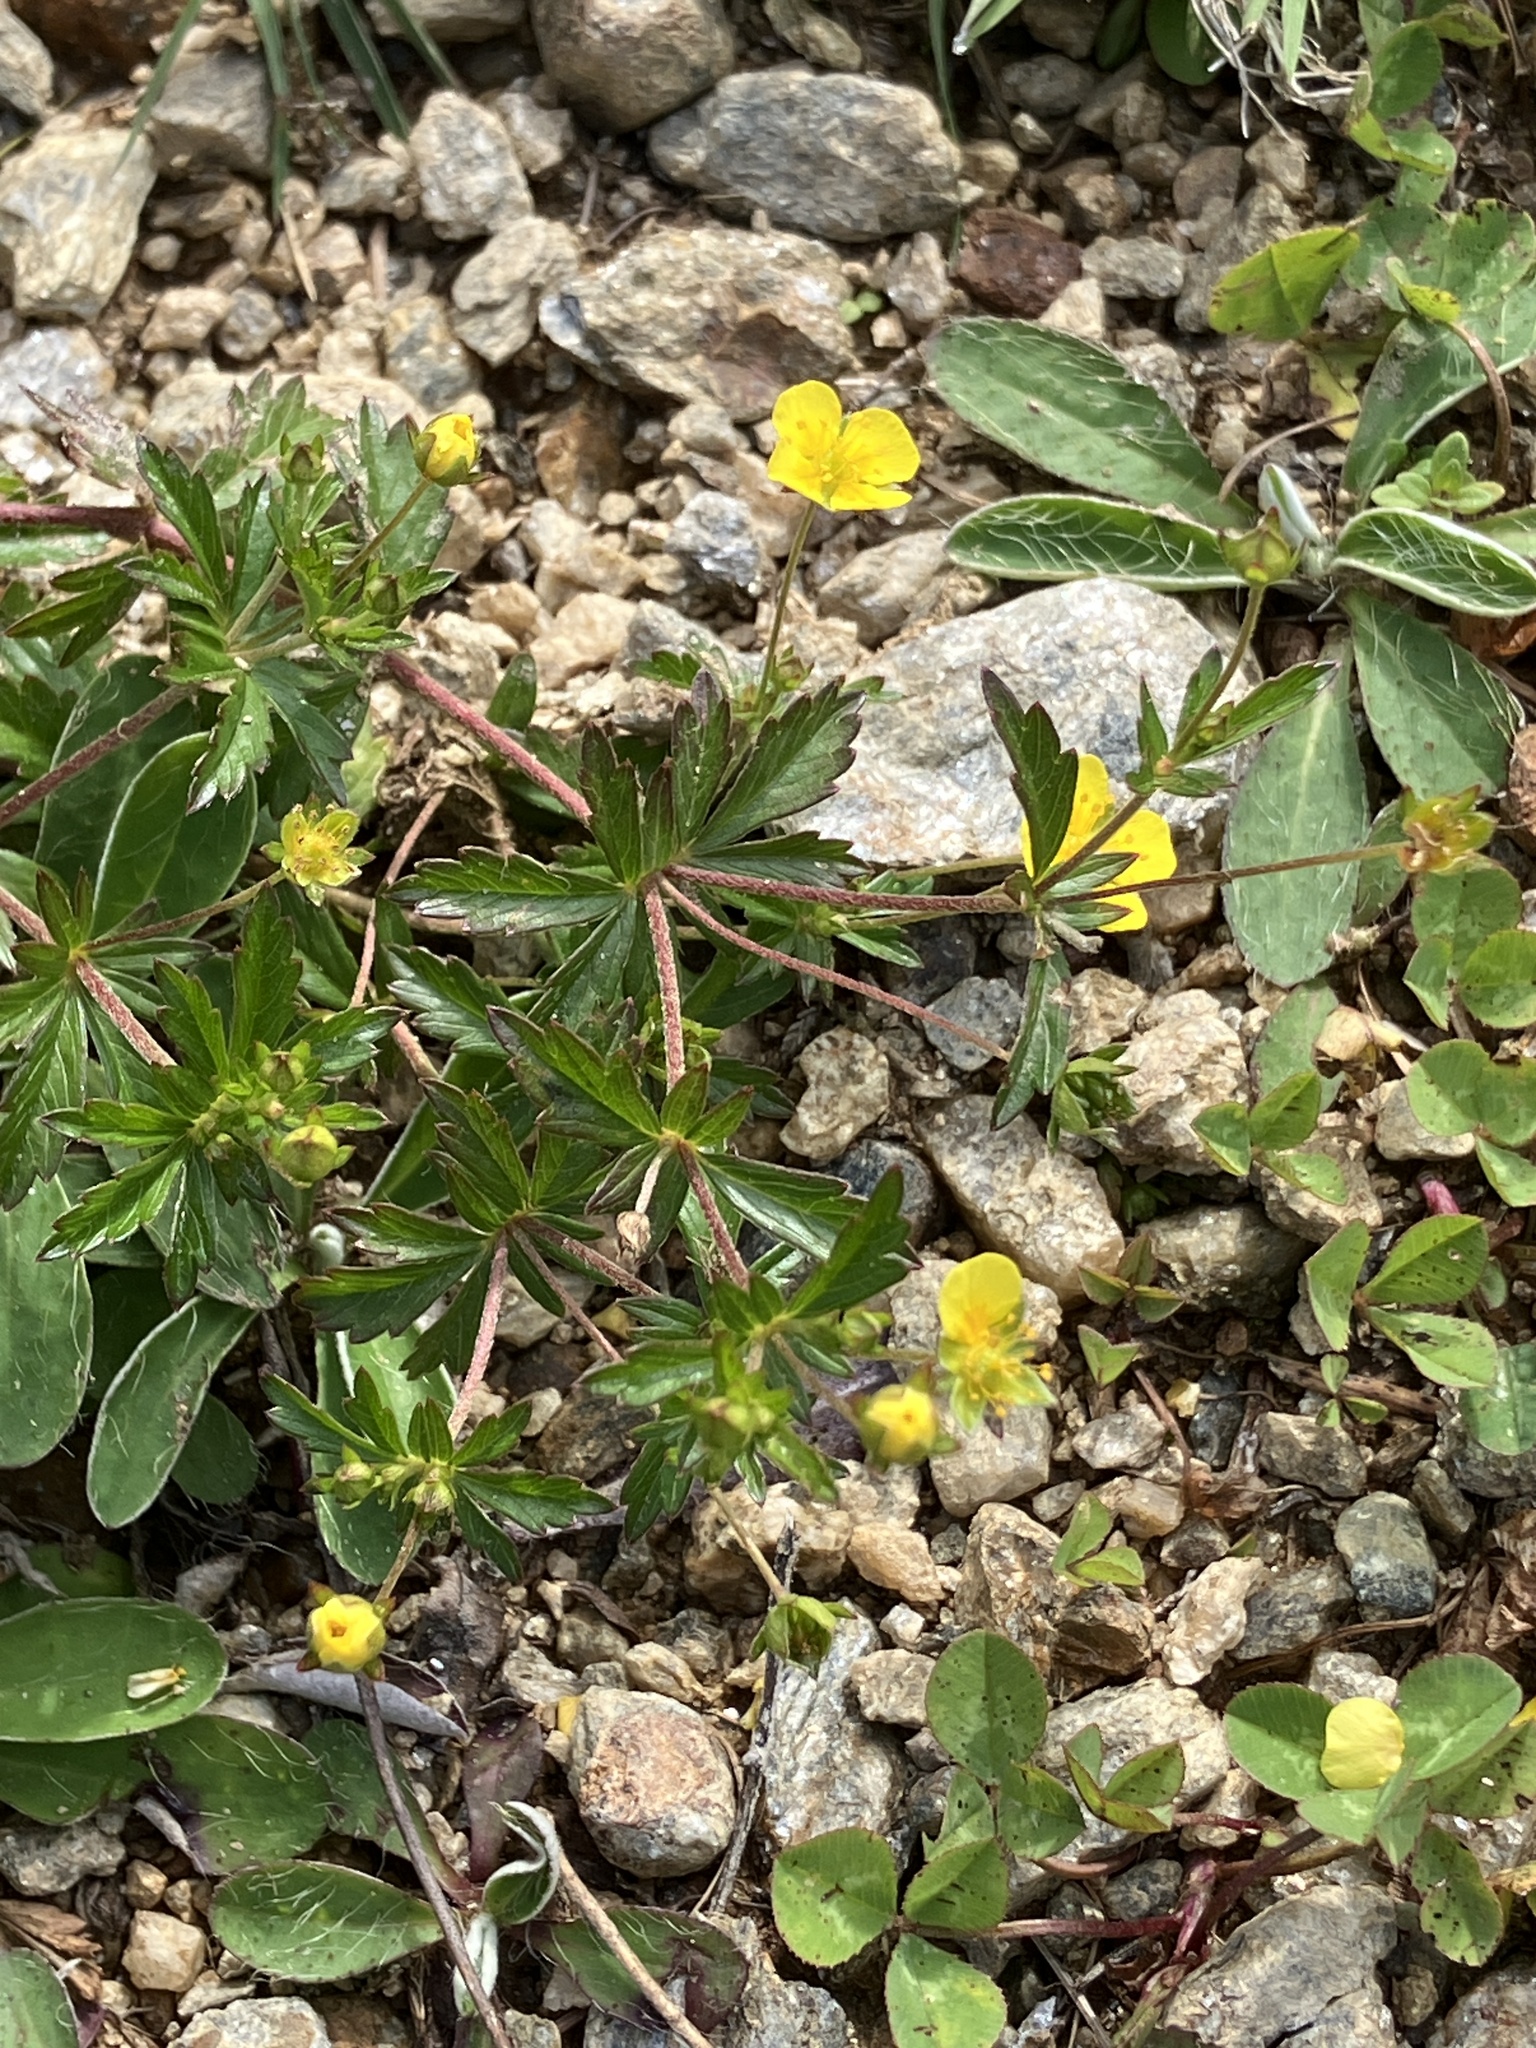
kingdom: Plantae
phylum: Tracheophyta
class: Magnoliopsida
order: Rosales
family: Rosaceae
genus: Potentilla
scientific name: Potentilla erecta
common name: Tormentil
